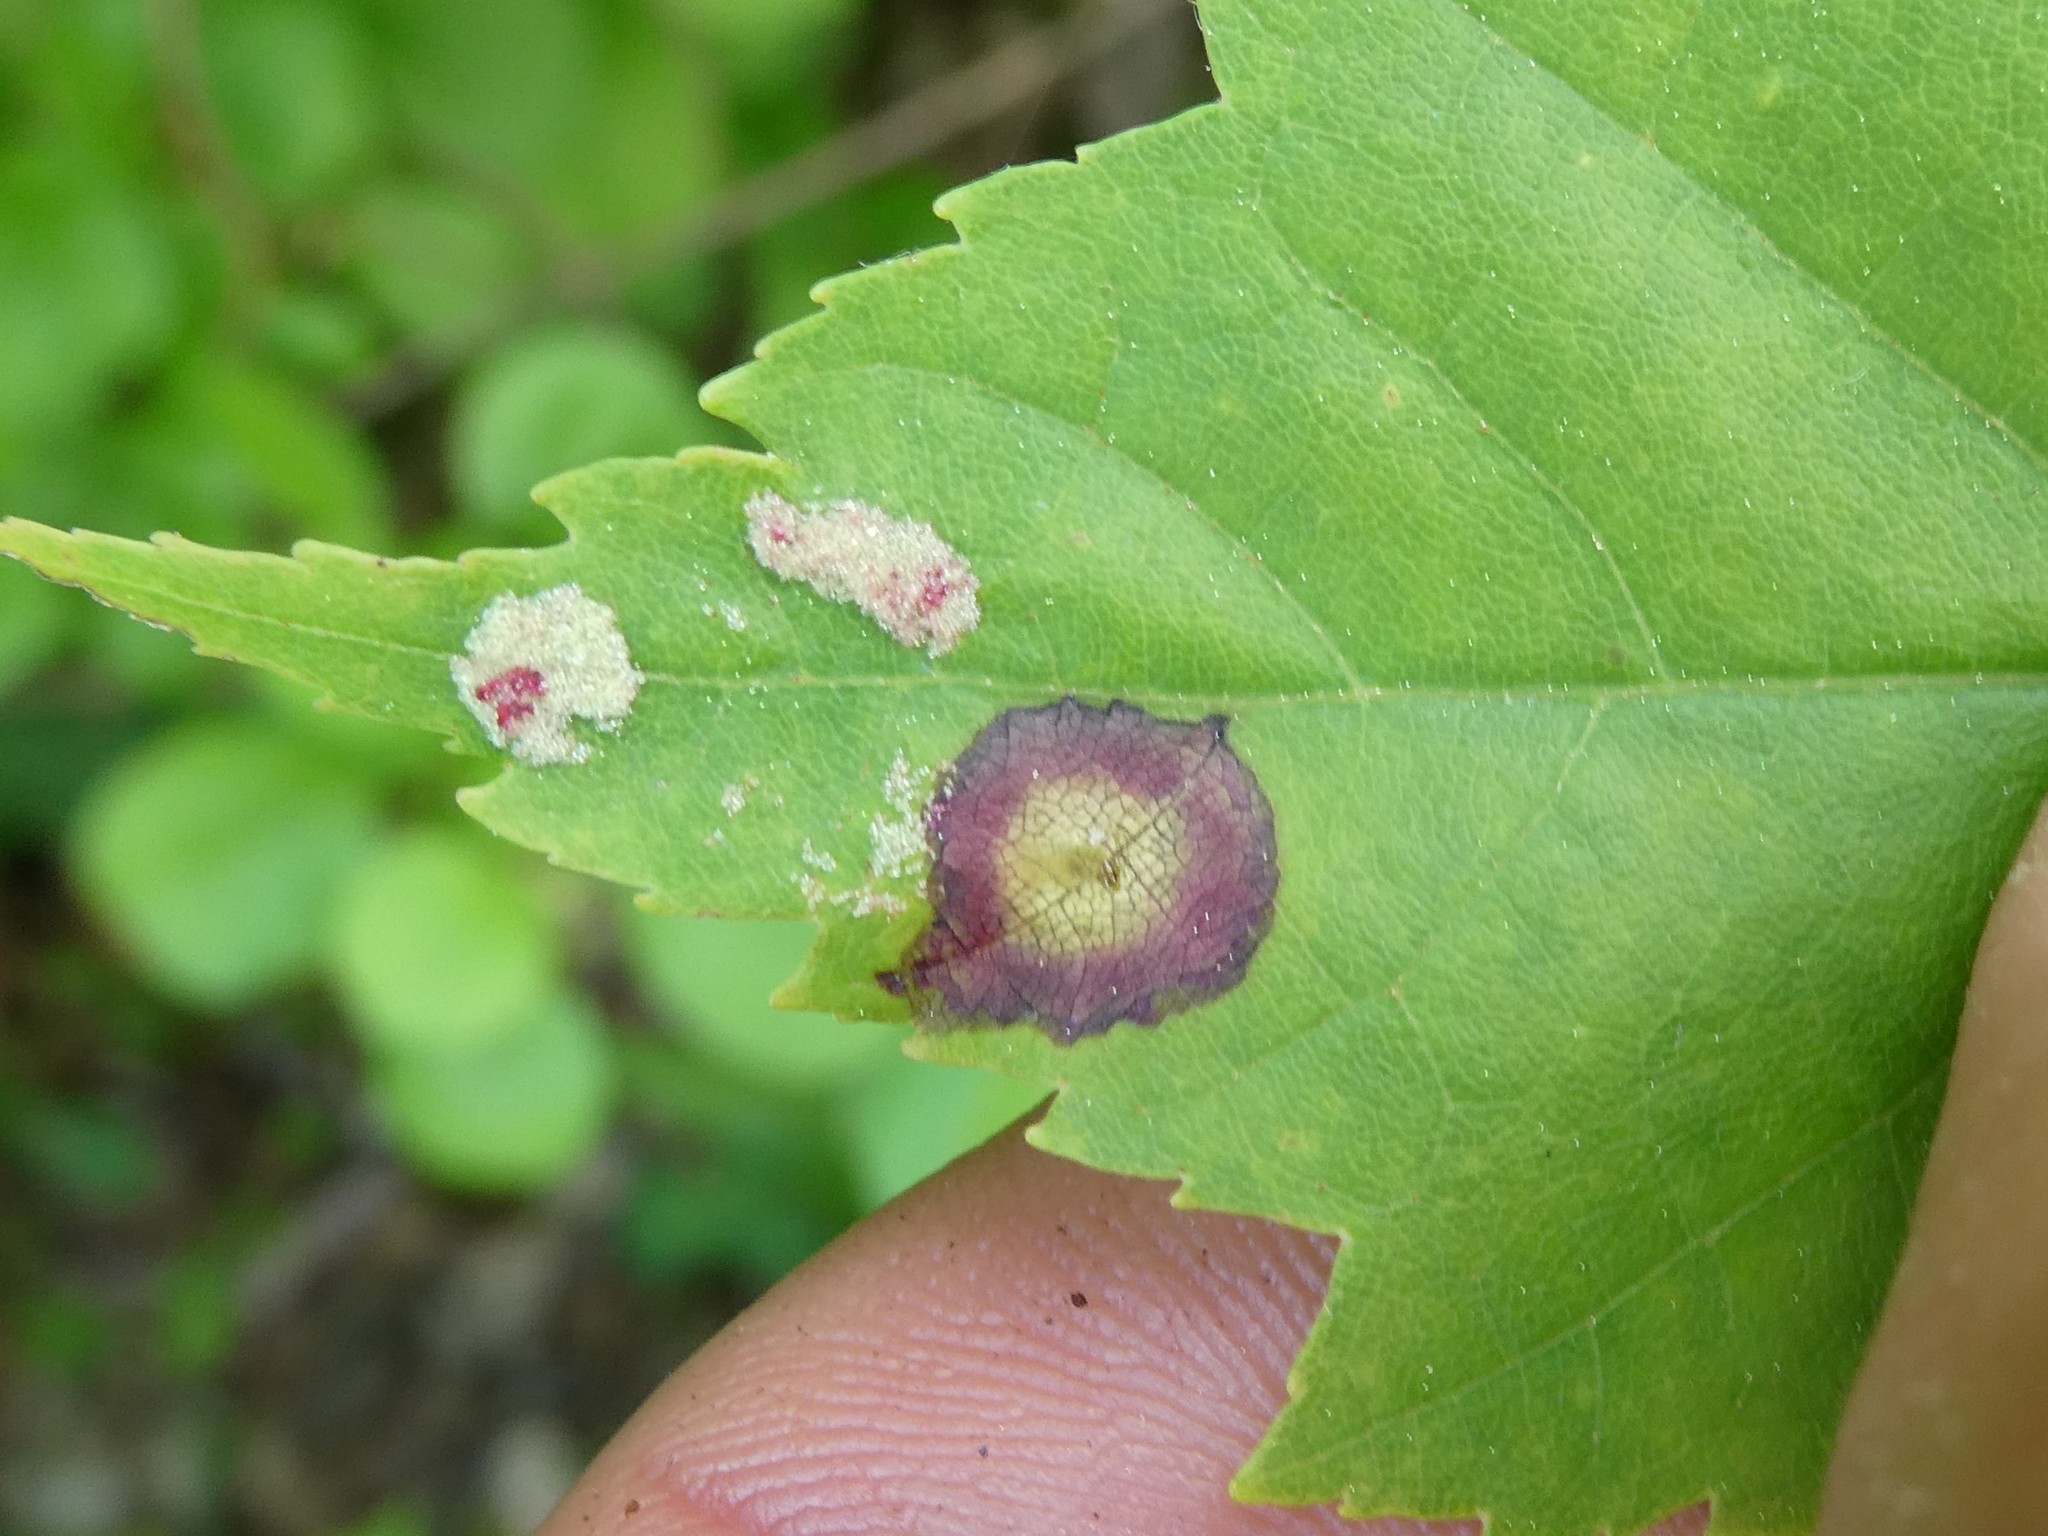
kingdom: Animalia
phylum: Arthropoda
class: Insecta
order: Diptera
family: Cecidomyiidae
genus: Acericecis
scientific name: Acericecis ocellaris
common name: Ocellate gall midge
